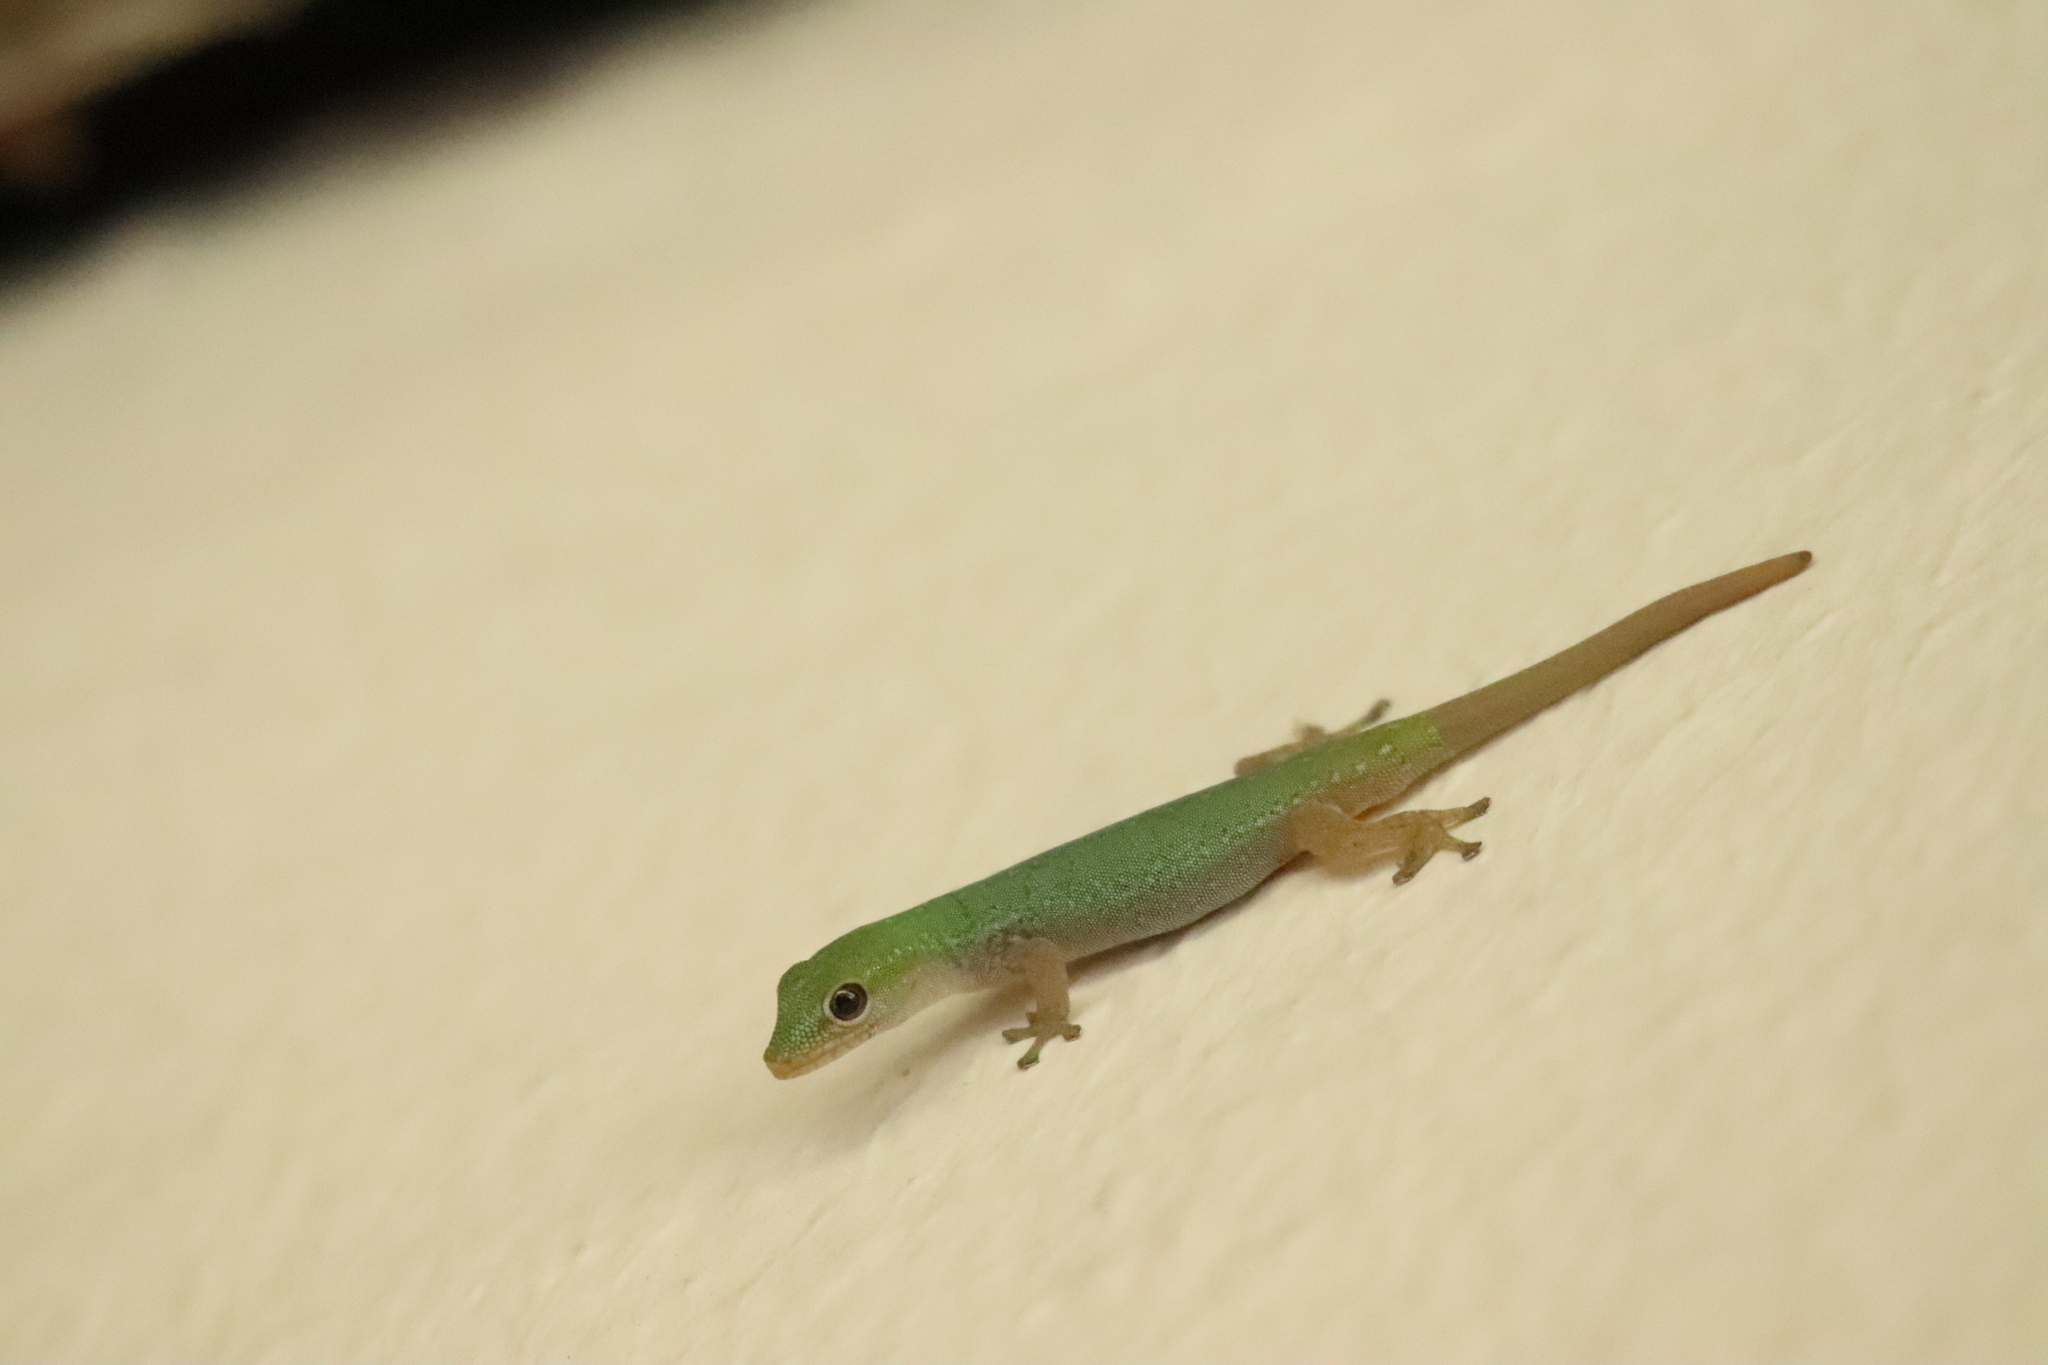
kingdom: Animalia
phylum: Chordata
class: Squamata
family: Gekkonidae
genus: Lygodactylus
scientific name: Lygodactylus conraui
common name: Cameroon dwarf gecko
